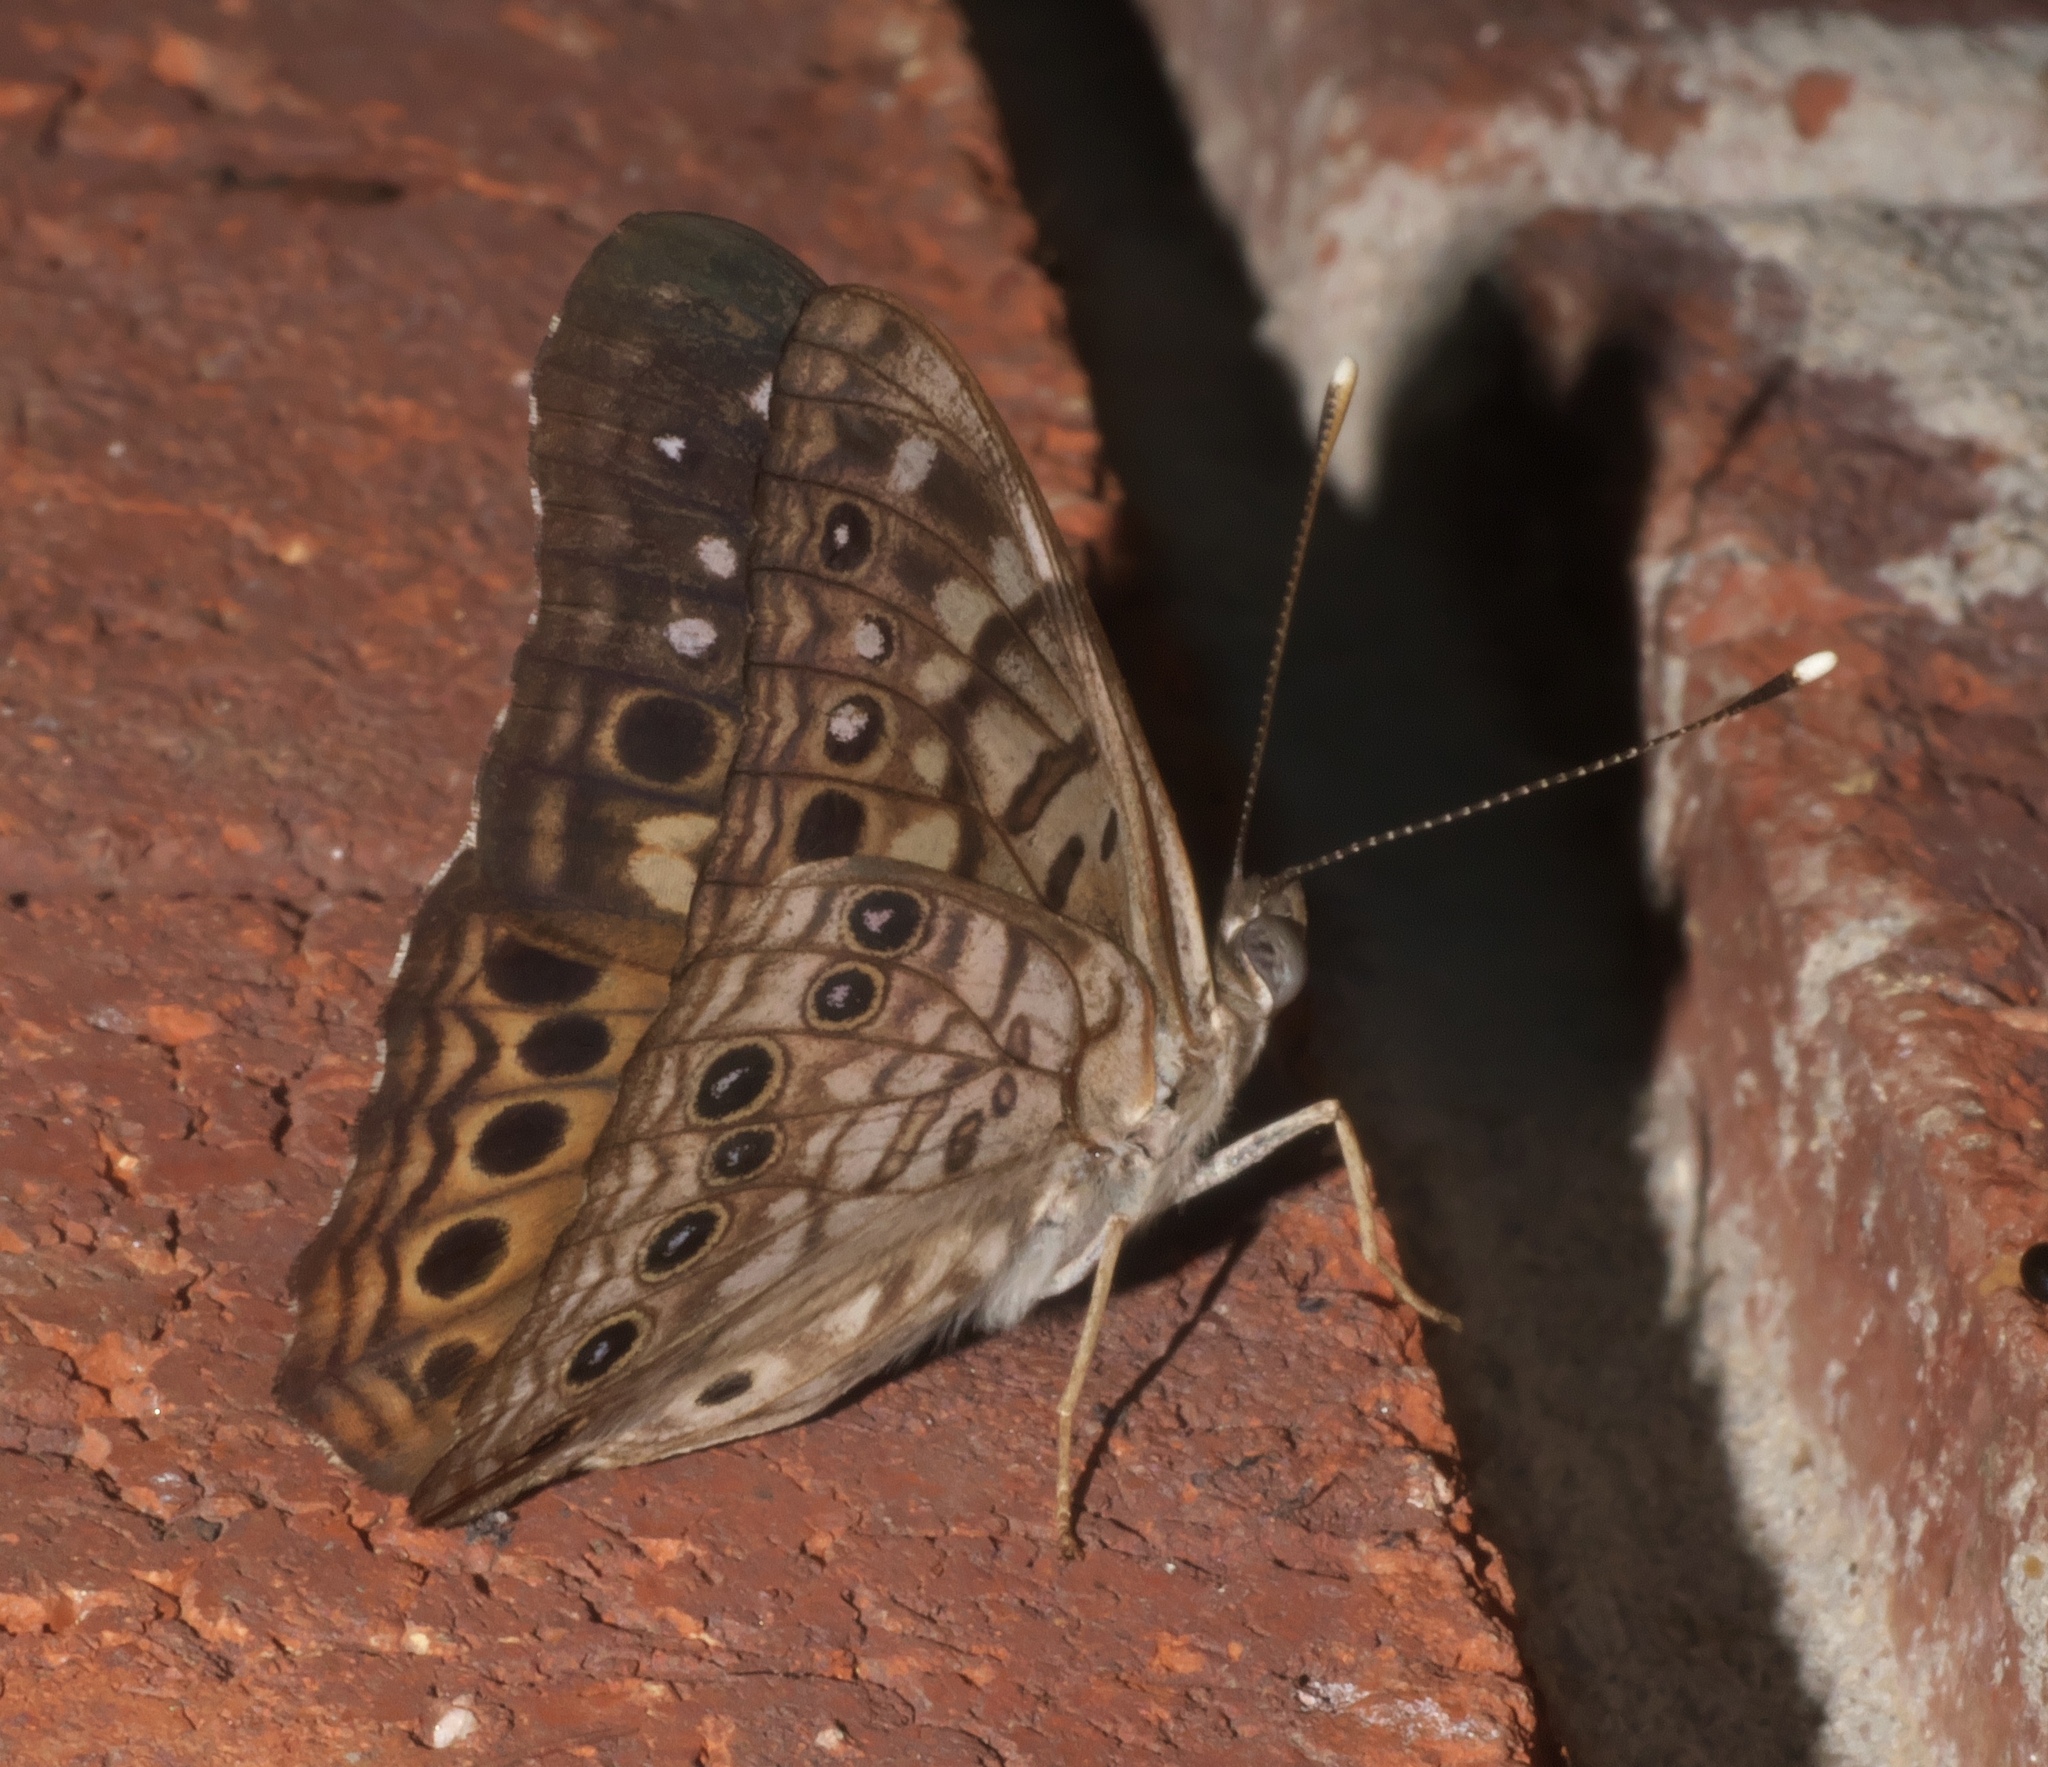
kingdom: Animalia
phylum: Arthropoda
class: Insecta
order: Lepidoptera
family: Nymphalidae
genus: Asterocampa
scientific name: Asterocampa celtis
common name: Hackberry emperor
